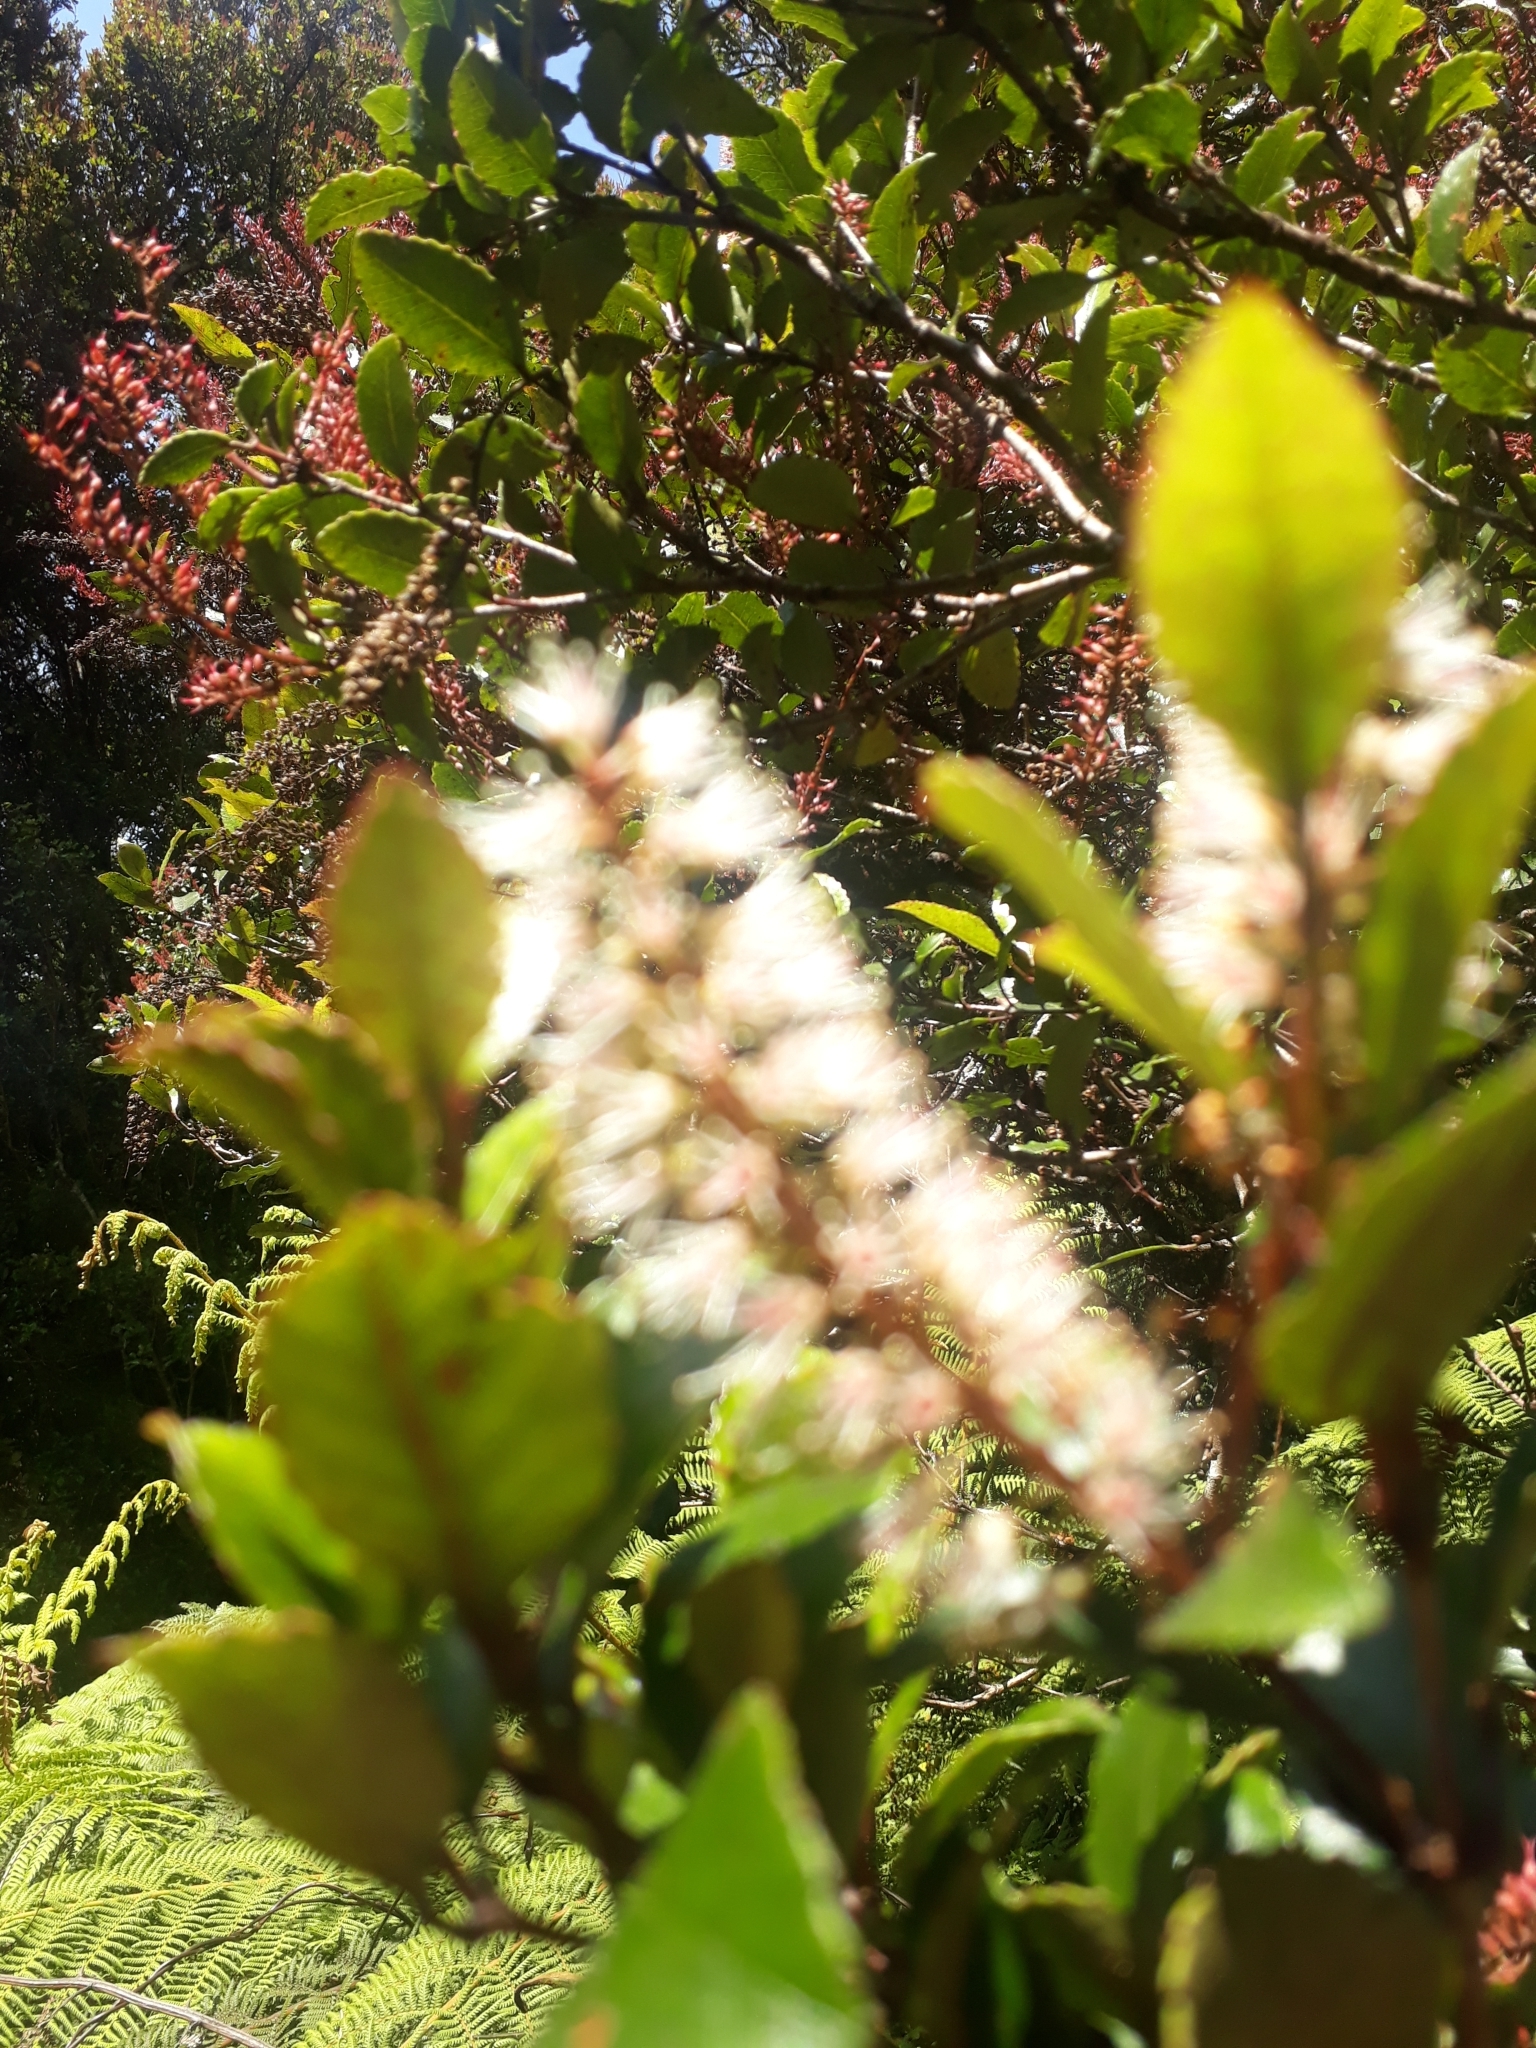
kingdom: Plantae
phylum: Tracheophyta
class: Magnoliopsida
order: Oxalidales
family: Cunoniaceae
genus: Pterophylla
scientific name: Pterophylla racemosa
